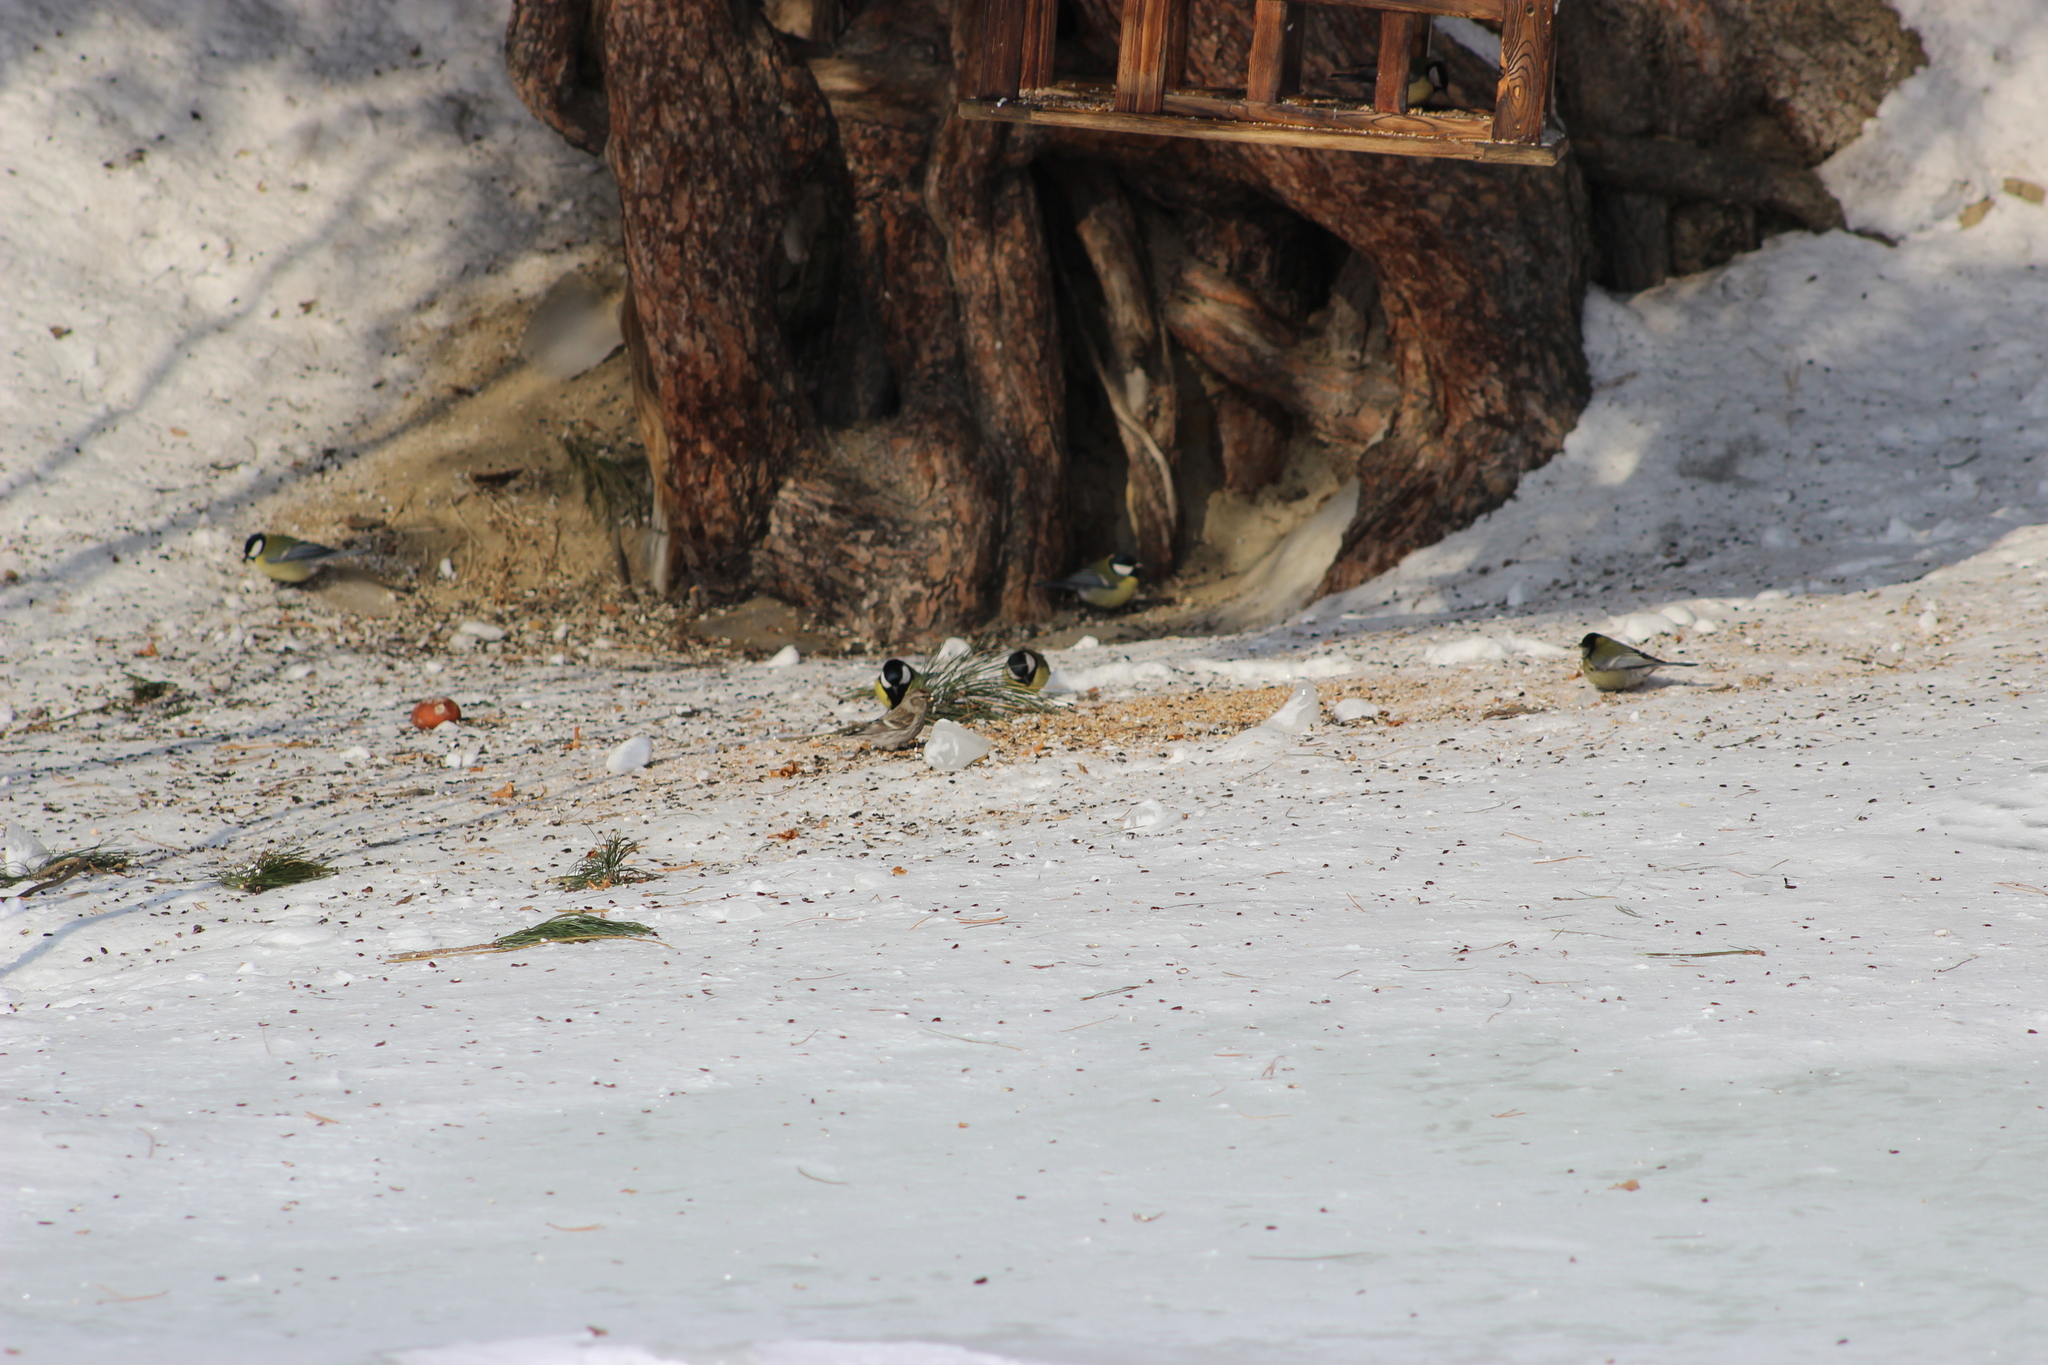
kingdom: Animalia
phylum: Chordata
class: Aves
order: Passeriformes
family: Fringillidae
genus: Acanthis
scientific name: Acanthis flammea
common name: Common redpoll
